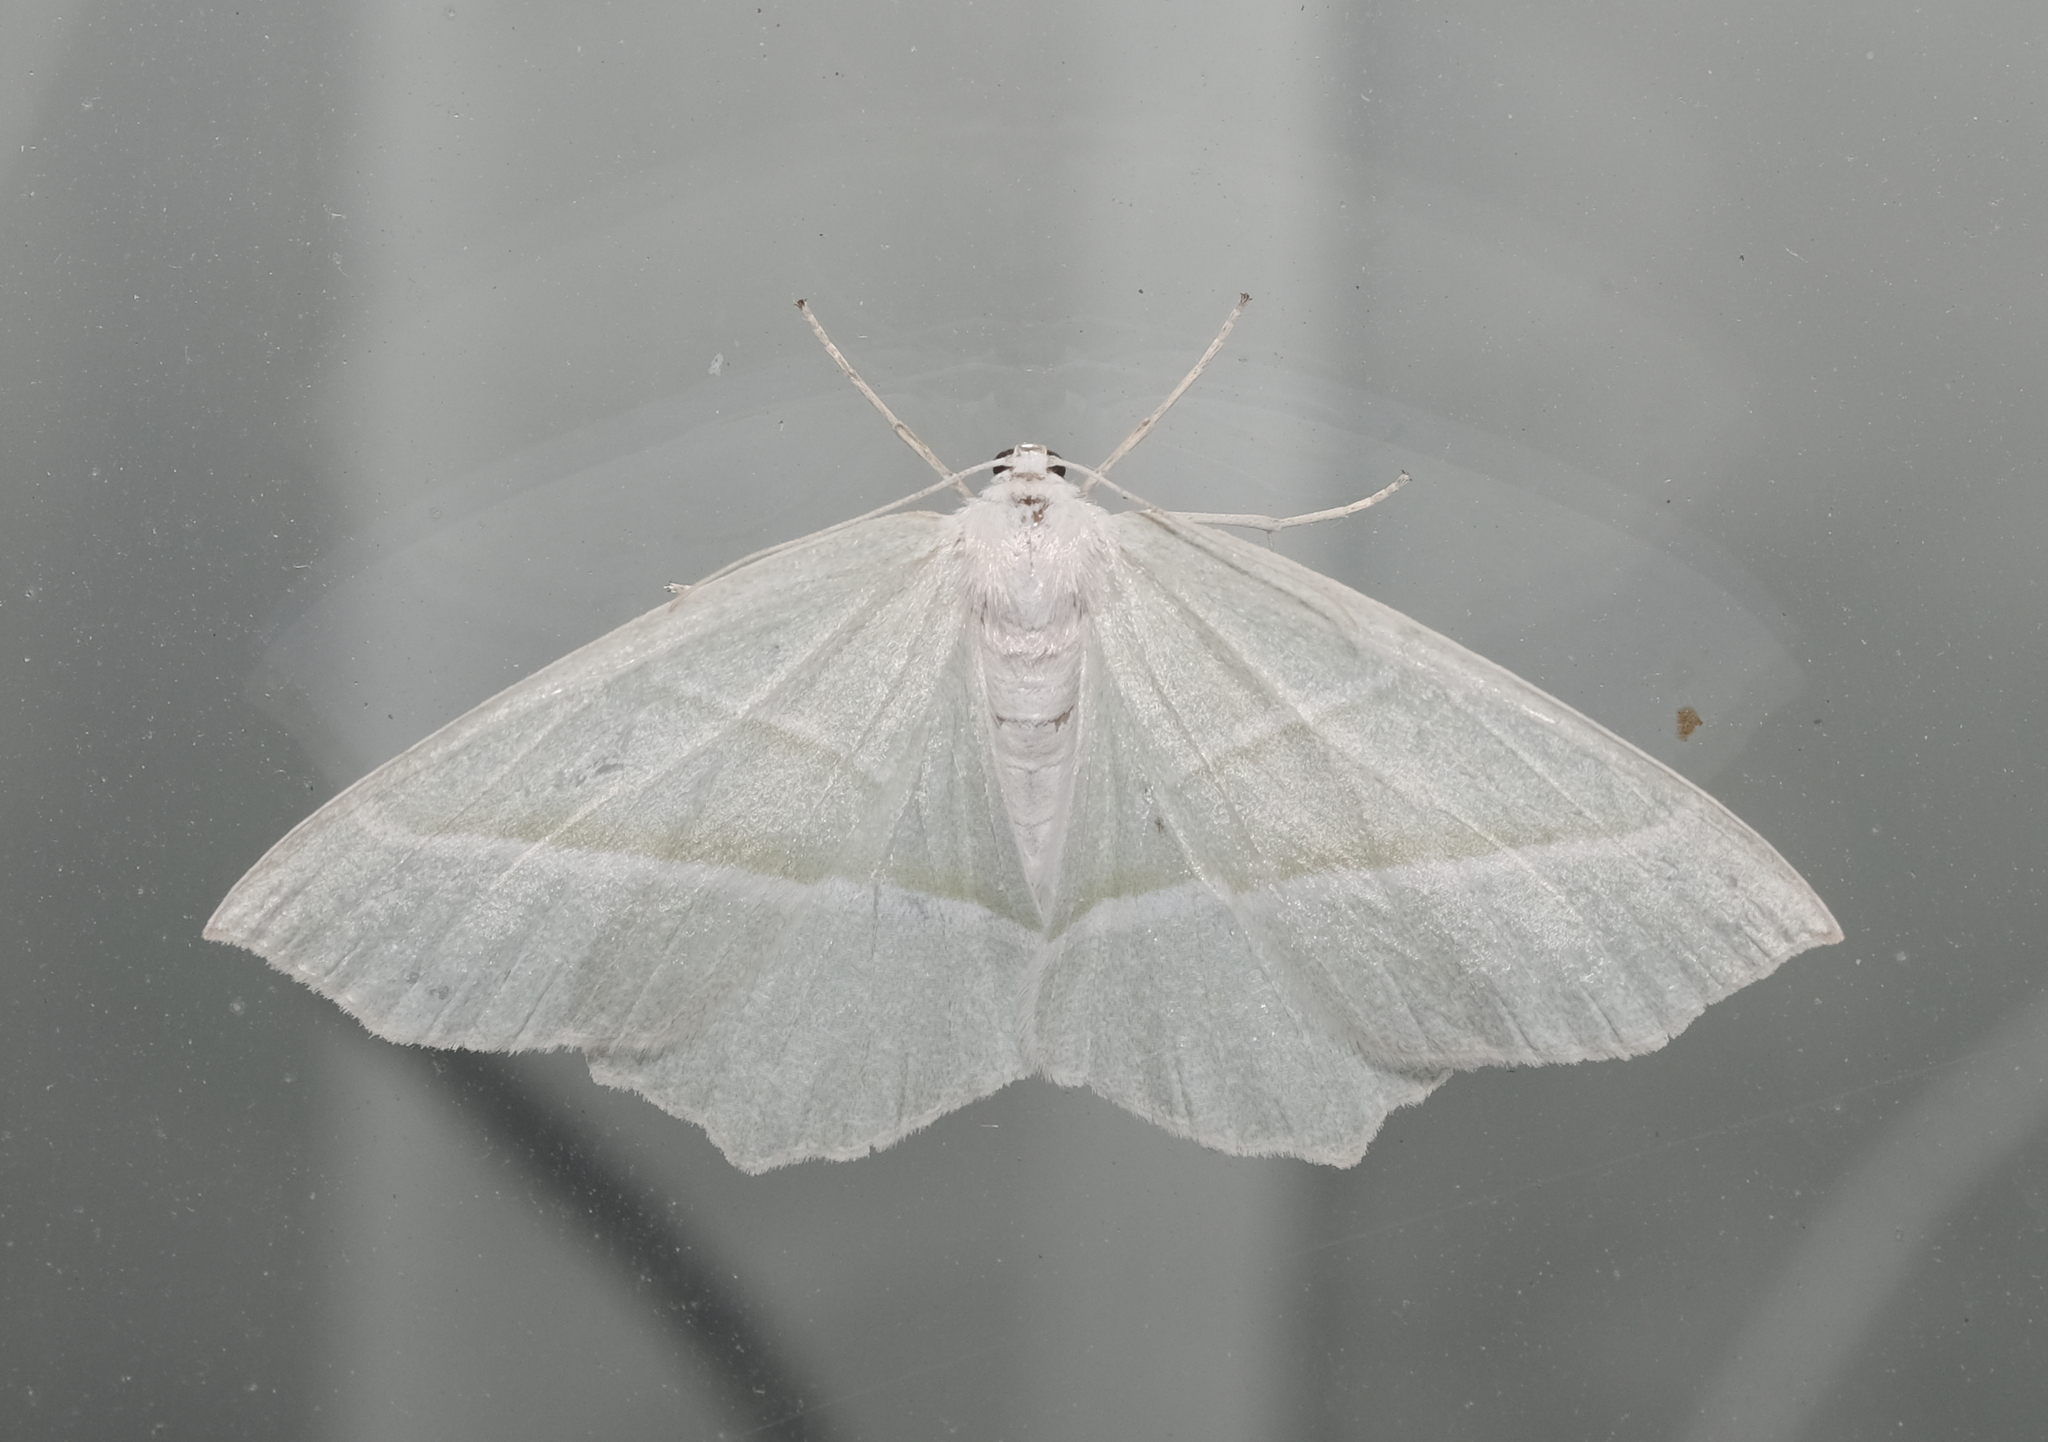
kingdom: Animalia
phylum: Arthropoda
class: Insecta
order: Lepidoptera
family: Geometridae
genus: Campaea
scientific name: Campaea margaritaria
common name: Light emerald
